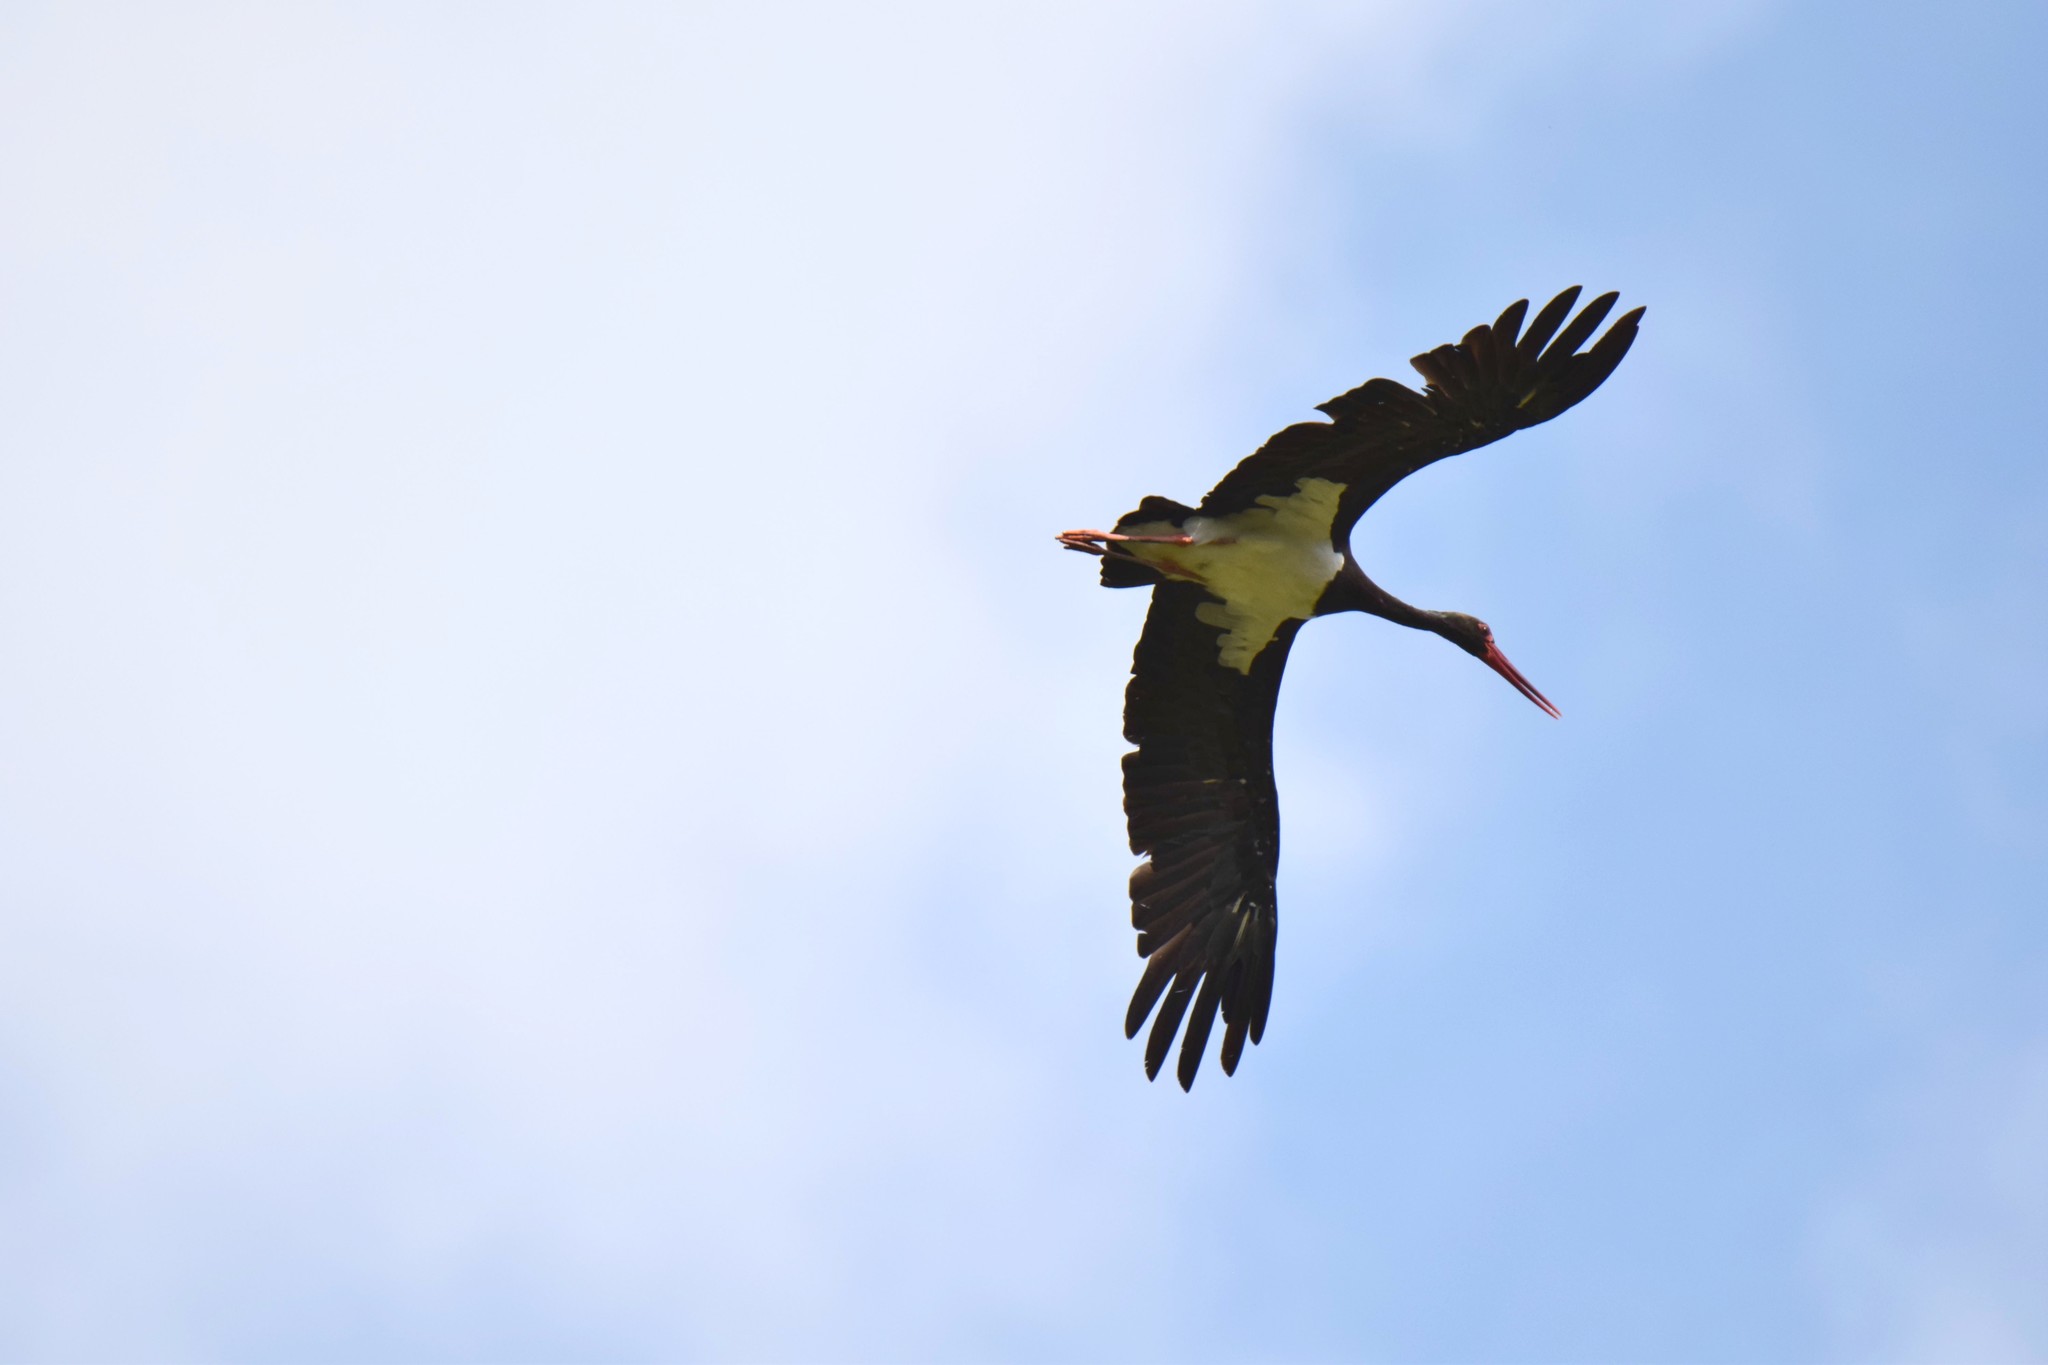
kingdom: Animalia
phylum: Chordata
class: Aves
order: Ciconiiformes
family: Ciconiidae
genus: Ciconia
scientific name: Ciconia nigra
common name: Black stork
